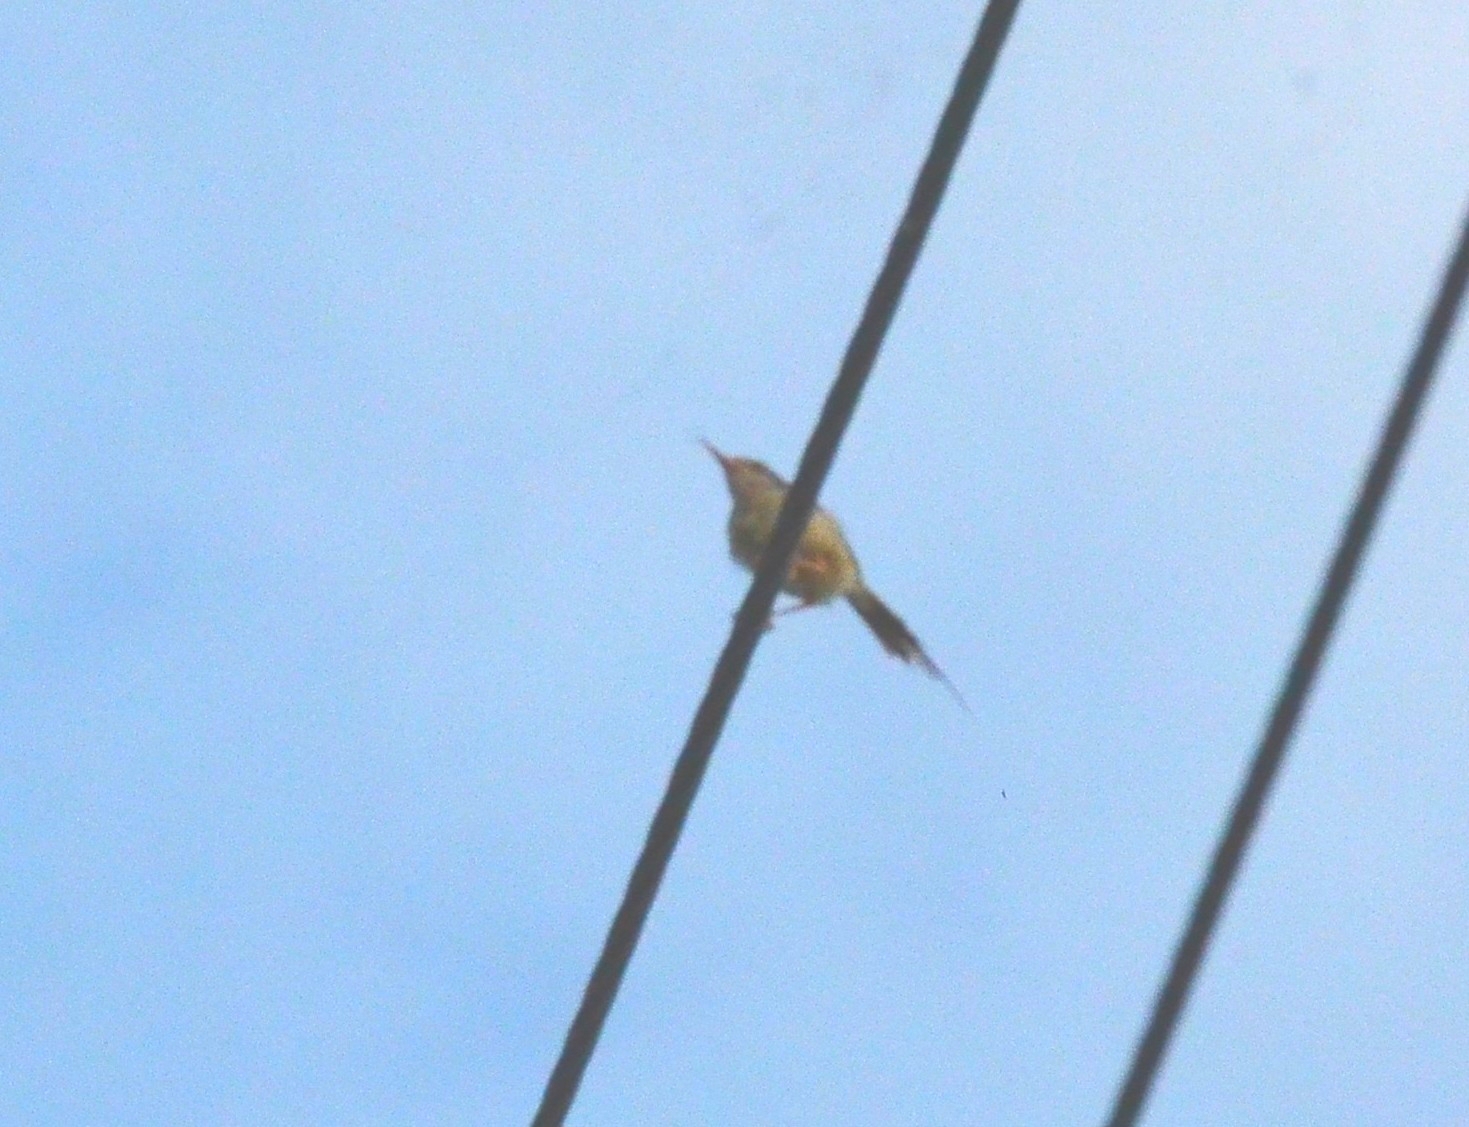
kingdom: Animalia
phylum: Chordata
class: Aves
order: Passeriformes
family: Cisticolidae
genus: Orthotomus
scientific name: Orthotomus sutorius
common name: Common tailorbird
